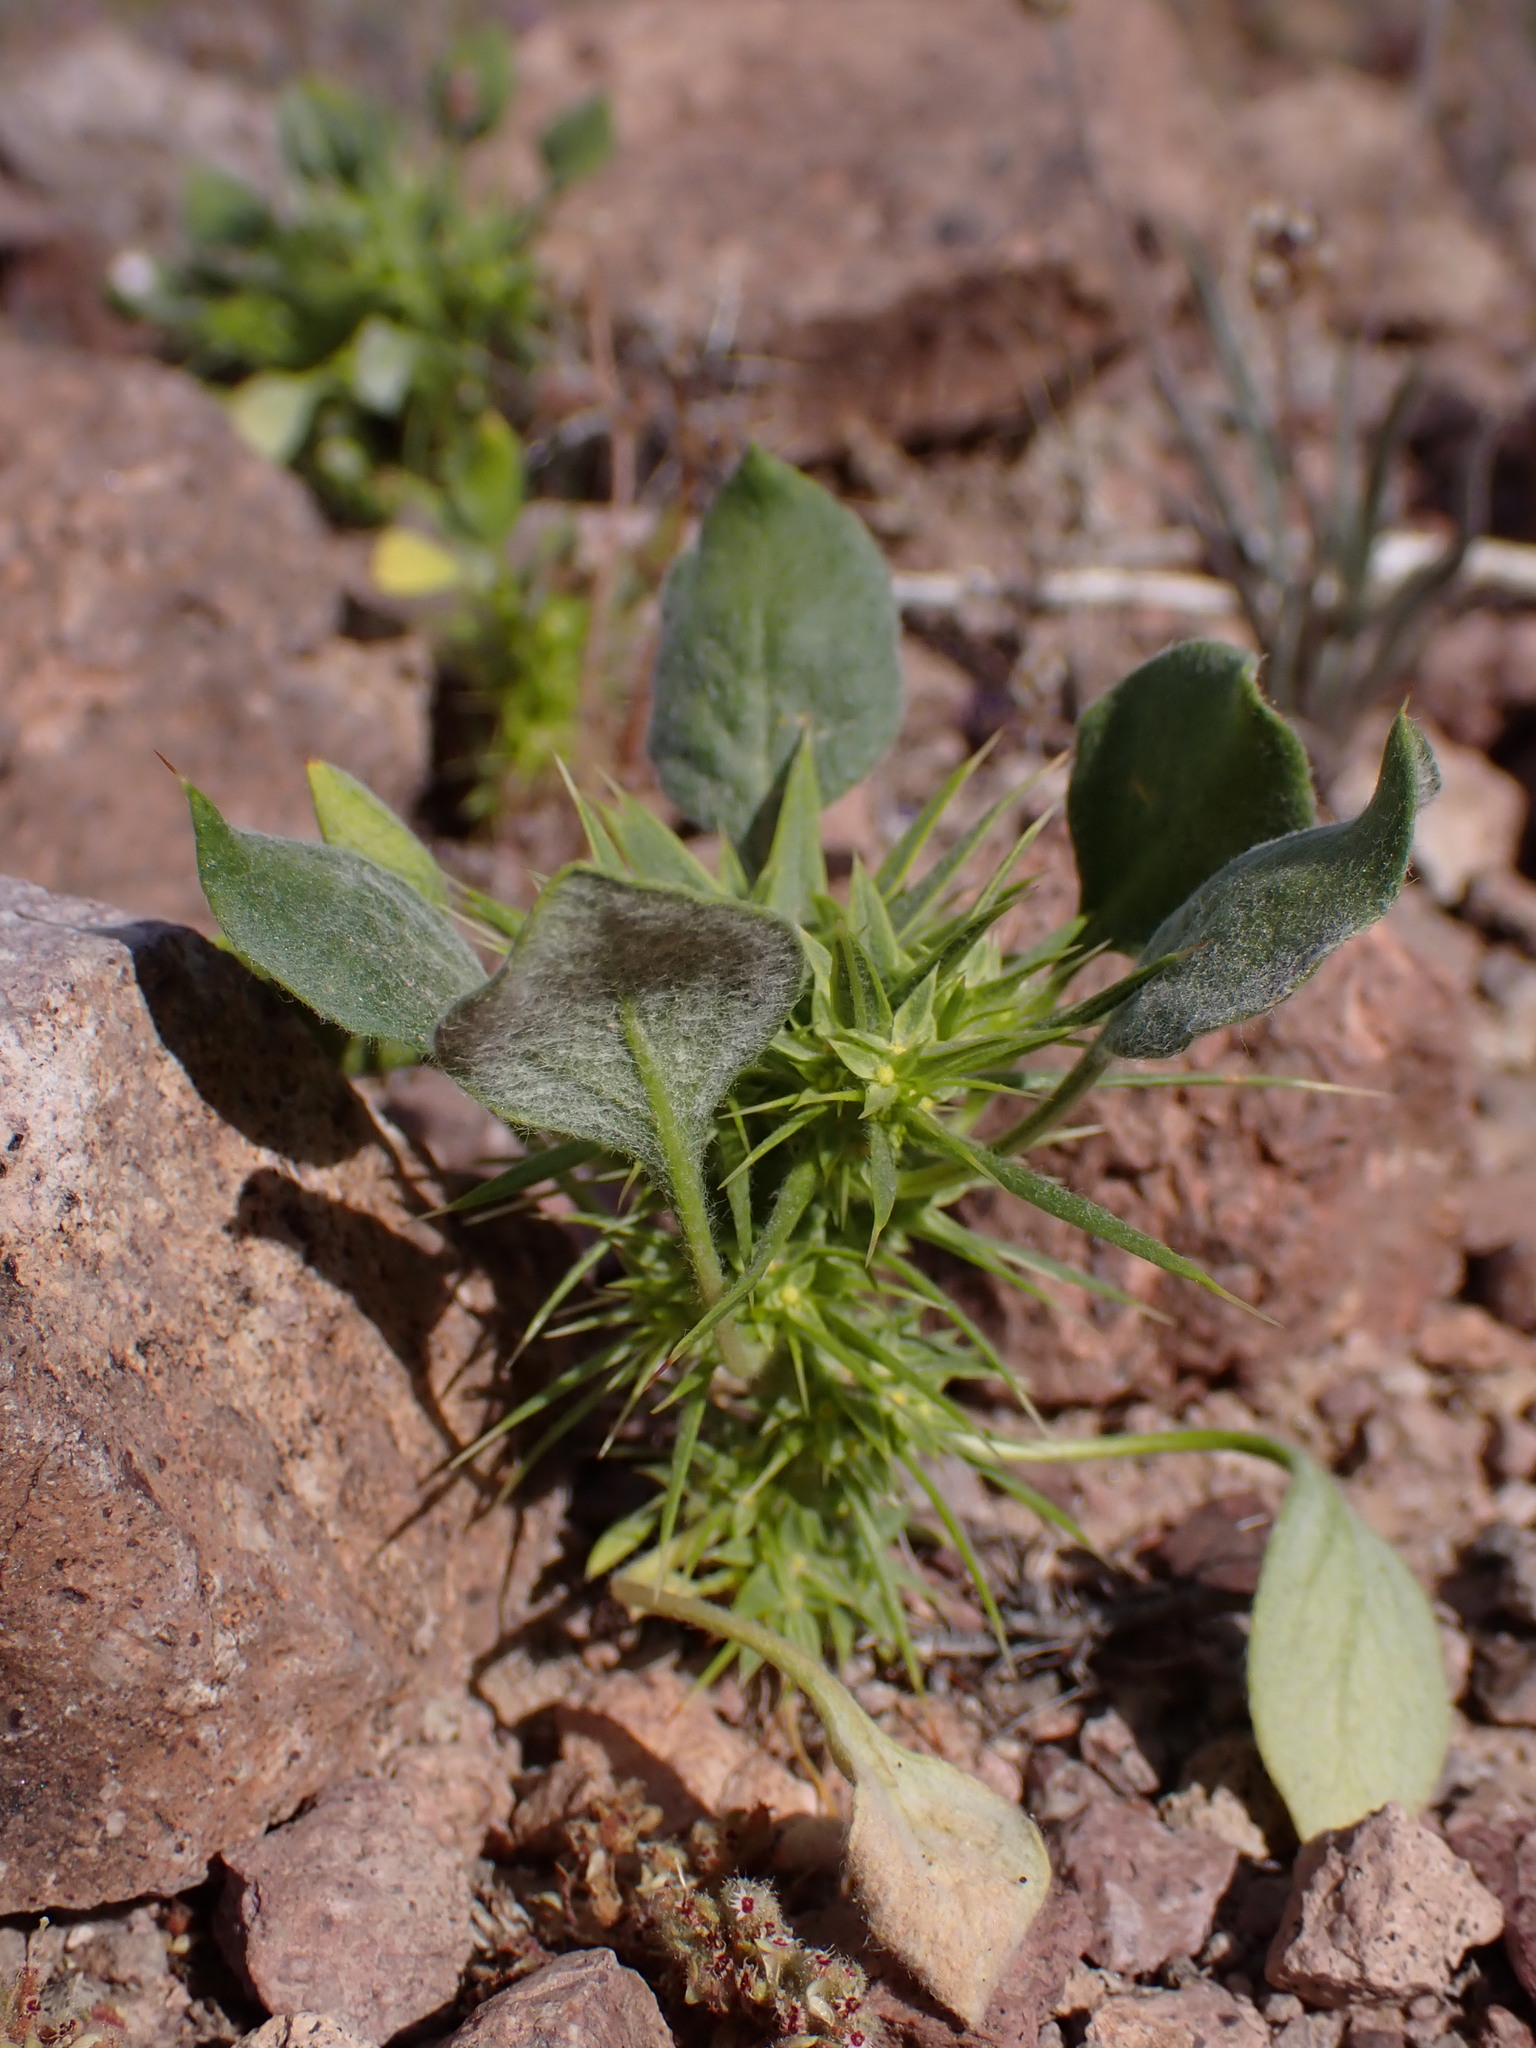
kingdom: Plantae
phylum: Tracheophyta
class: Magnoliopsida
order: Caryophyllales
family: Polygonaceae
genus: Chorizanthe
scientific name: Chorizanthe rigida
